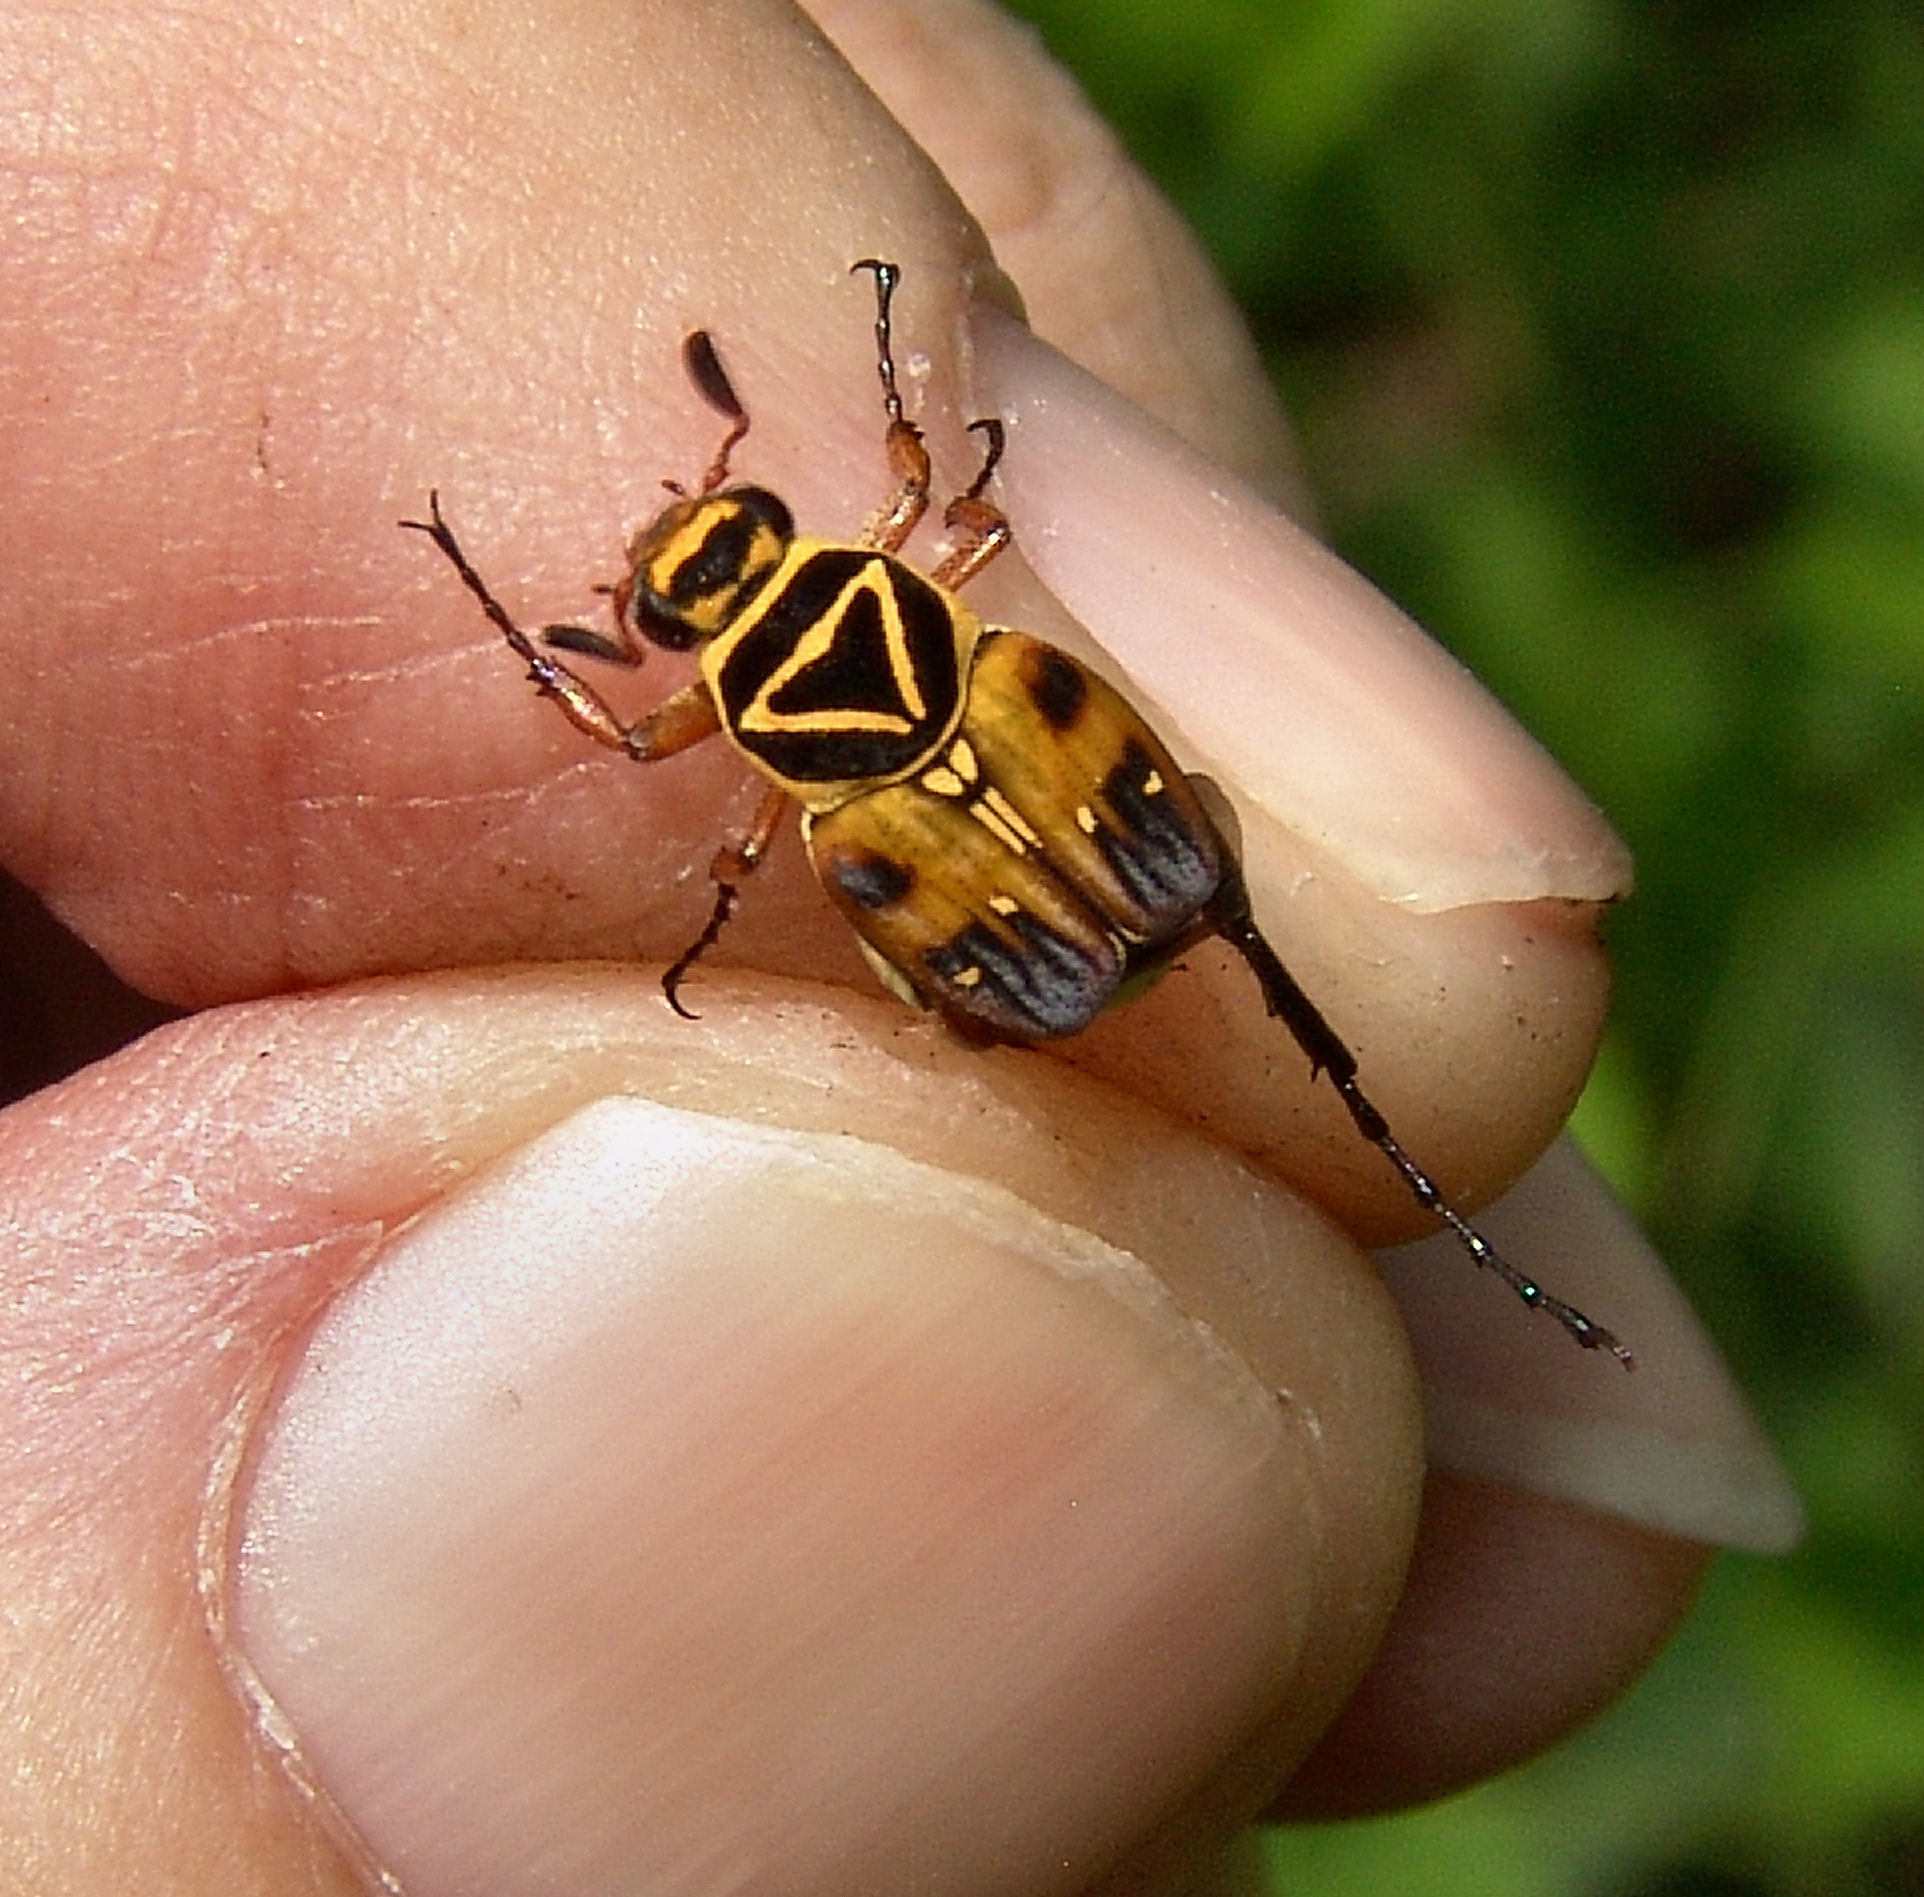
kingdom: Animalia
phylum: Arthropoda
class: Insecta
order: Coleoptera
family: Scarabaeidae
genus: Trigonopeltastes
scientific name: Trigonopeltastes delta
